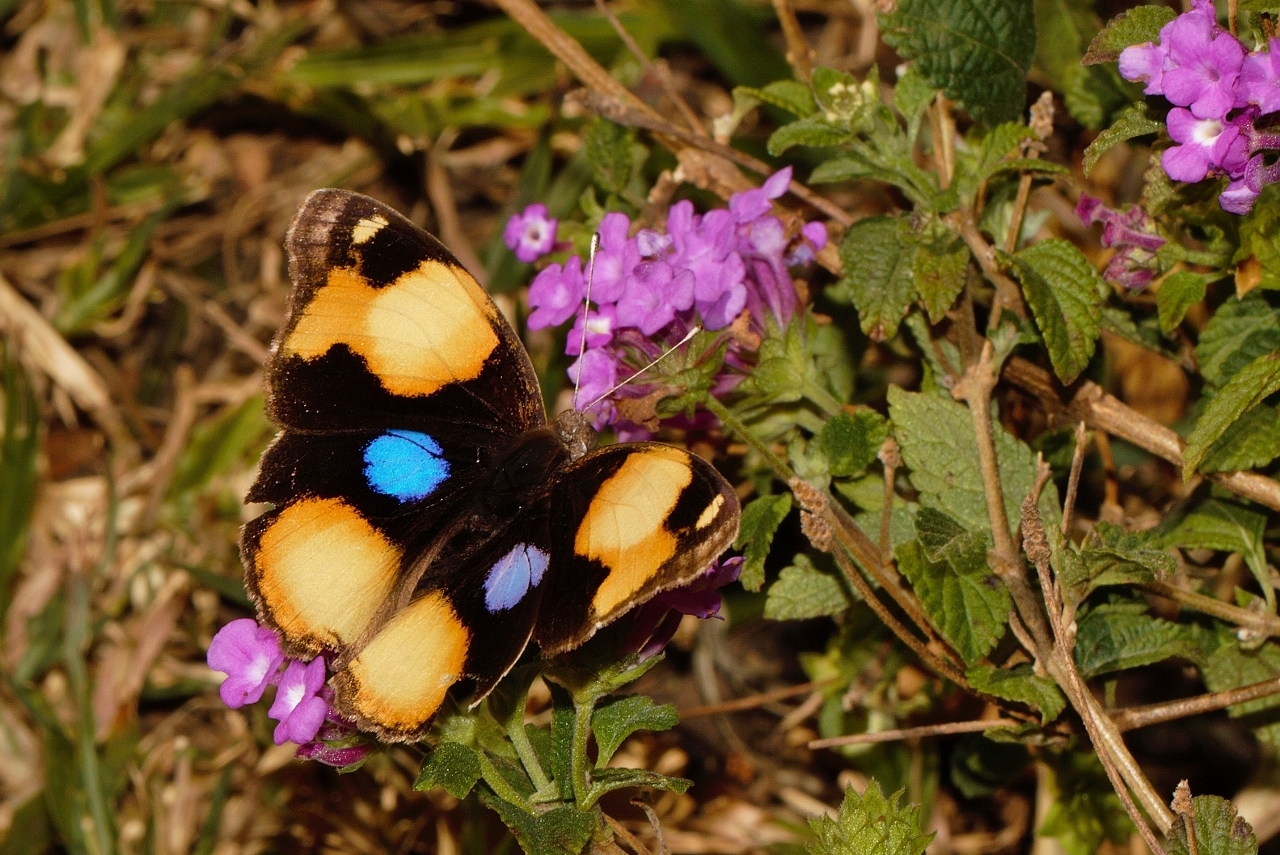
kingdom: Animalia
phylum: Arthropoda
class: Insecta
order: Lepidoptera
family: Nymphalidae
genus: Junonia
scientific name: Junonia hierta
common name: Yellow pansy
